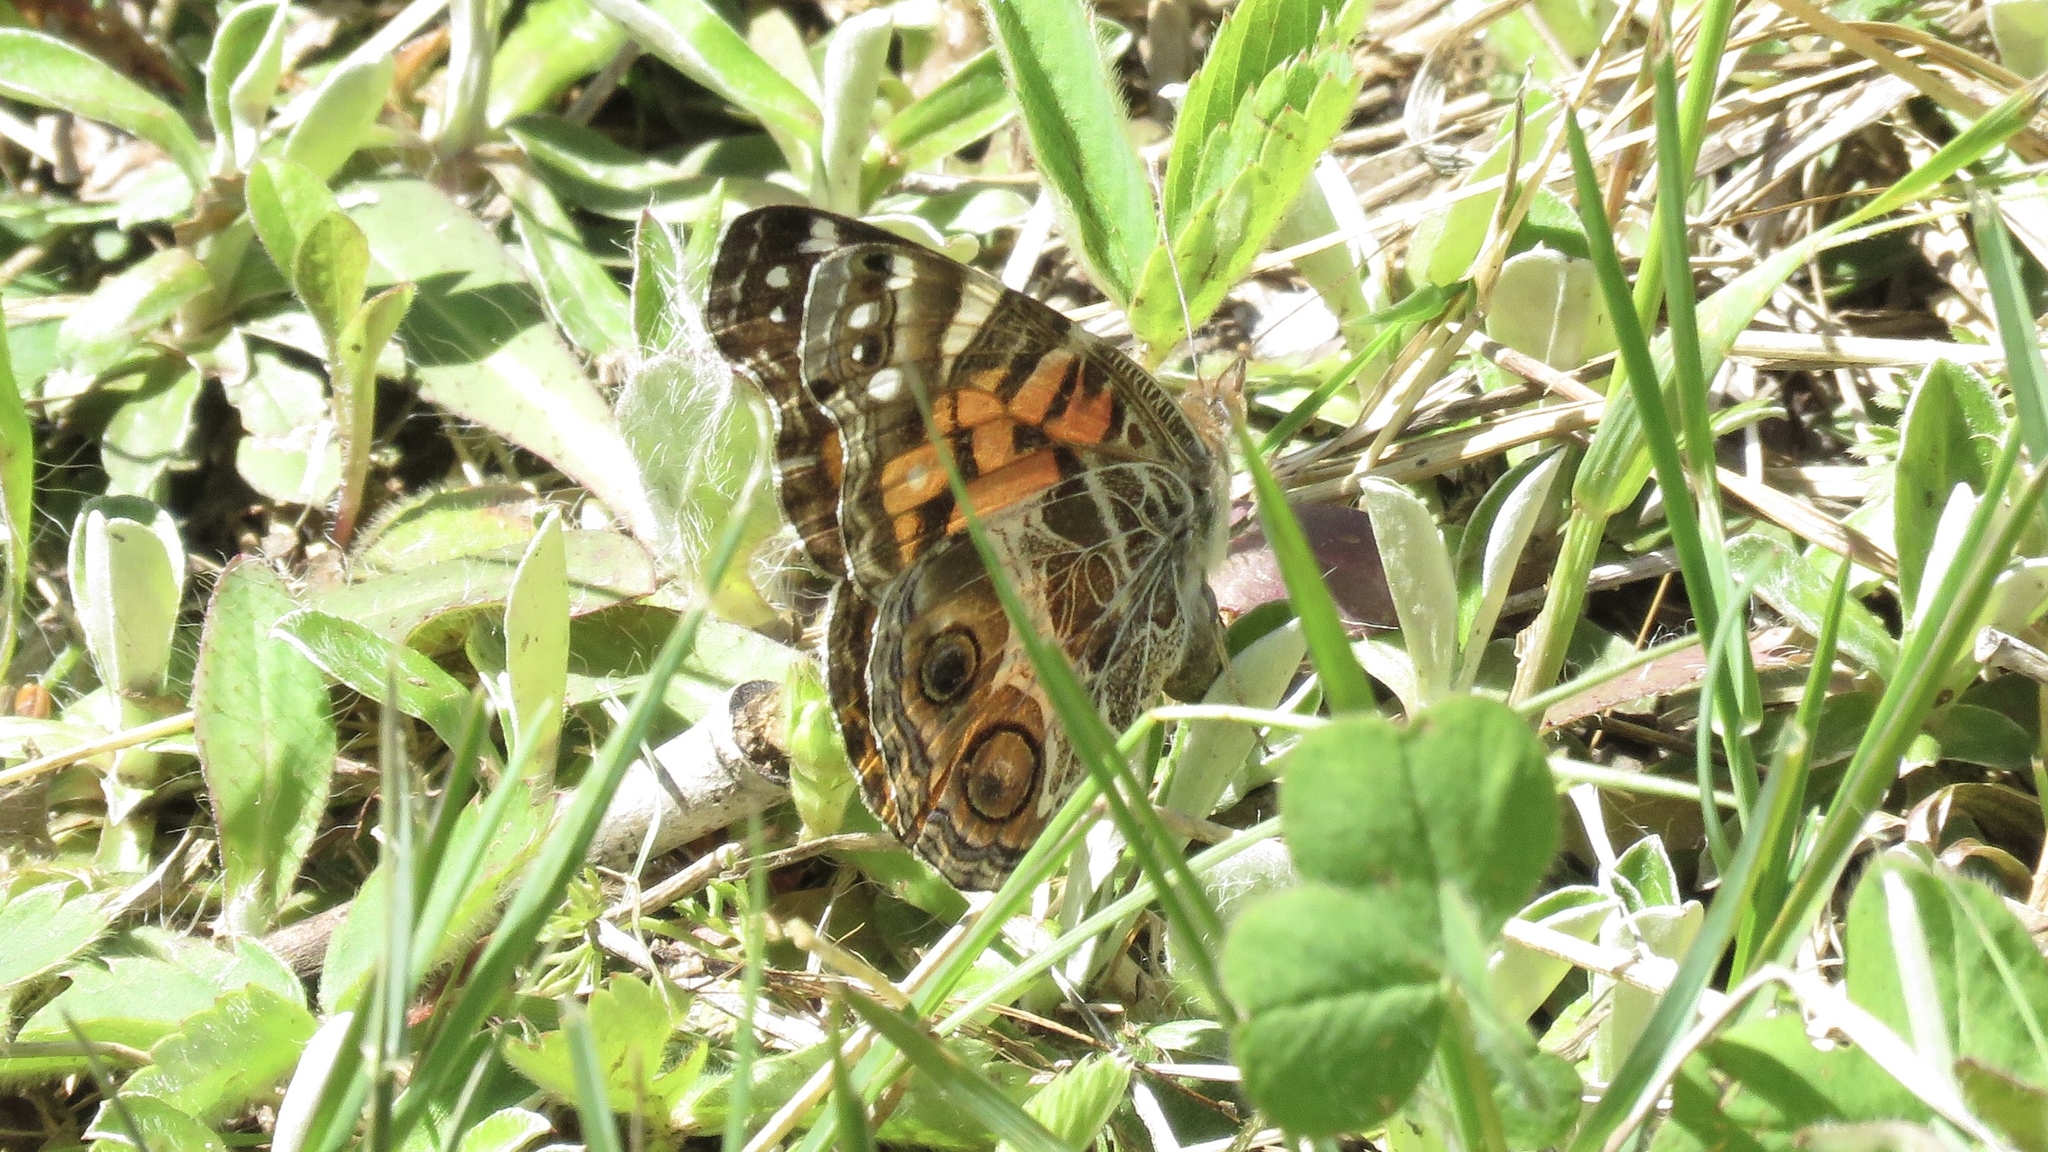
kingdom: Animalia
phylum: Arthropoda
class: Insecta
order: Lepidoptera
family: Nymphalidae
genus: Vanessa
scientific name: Vanessa virginiensis
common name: American lady
